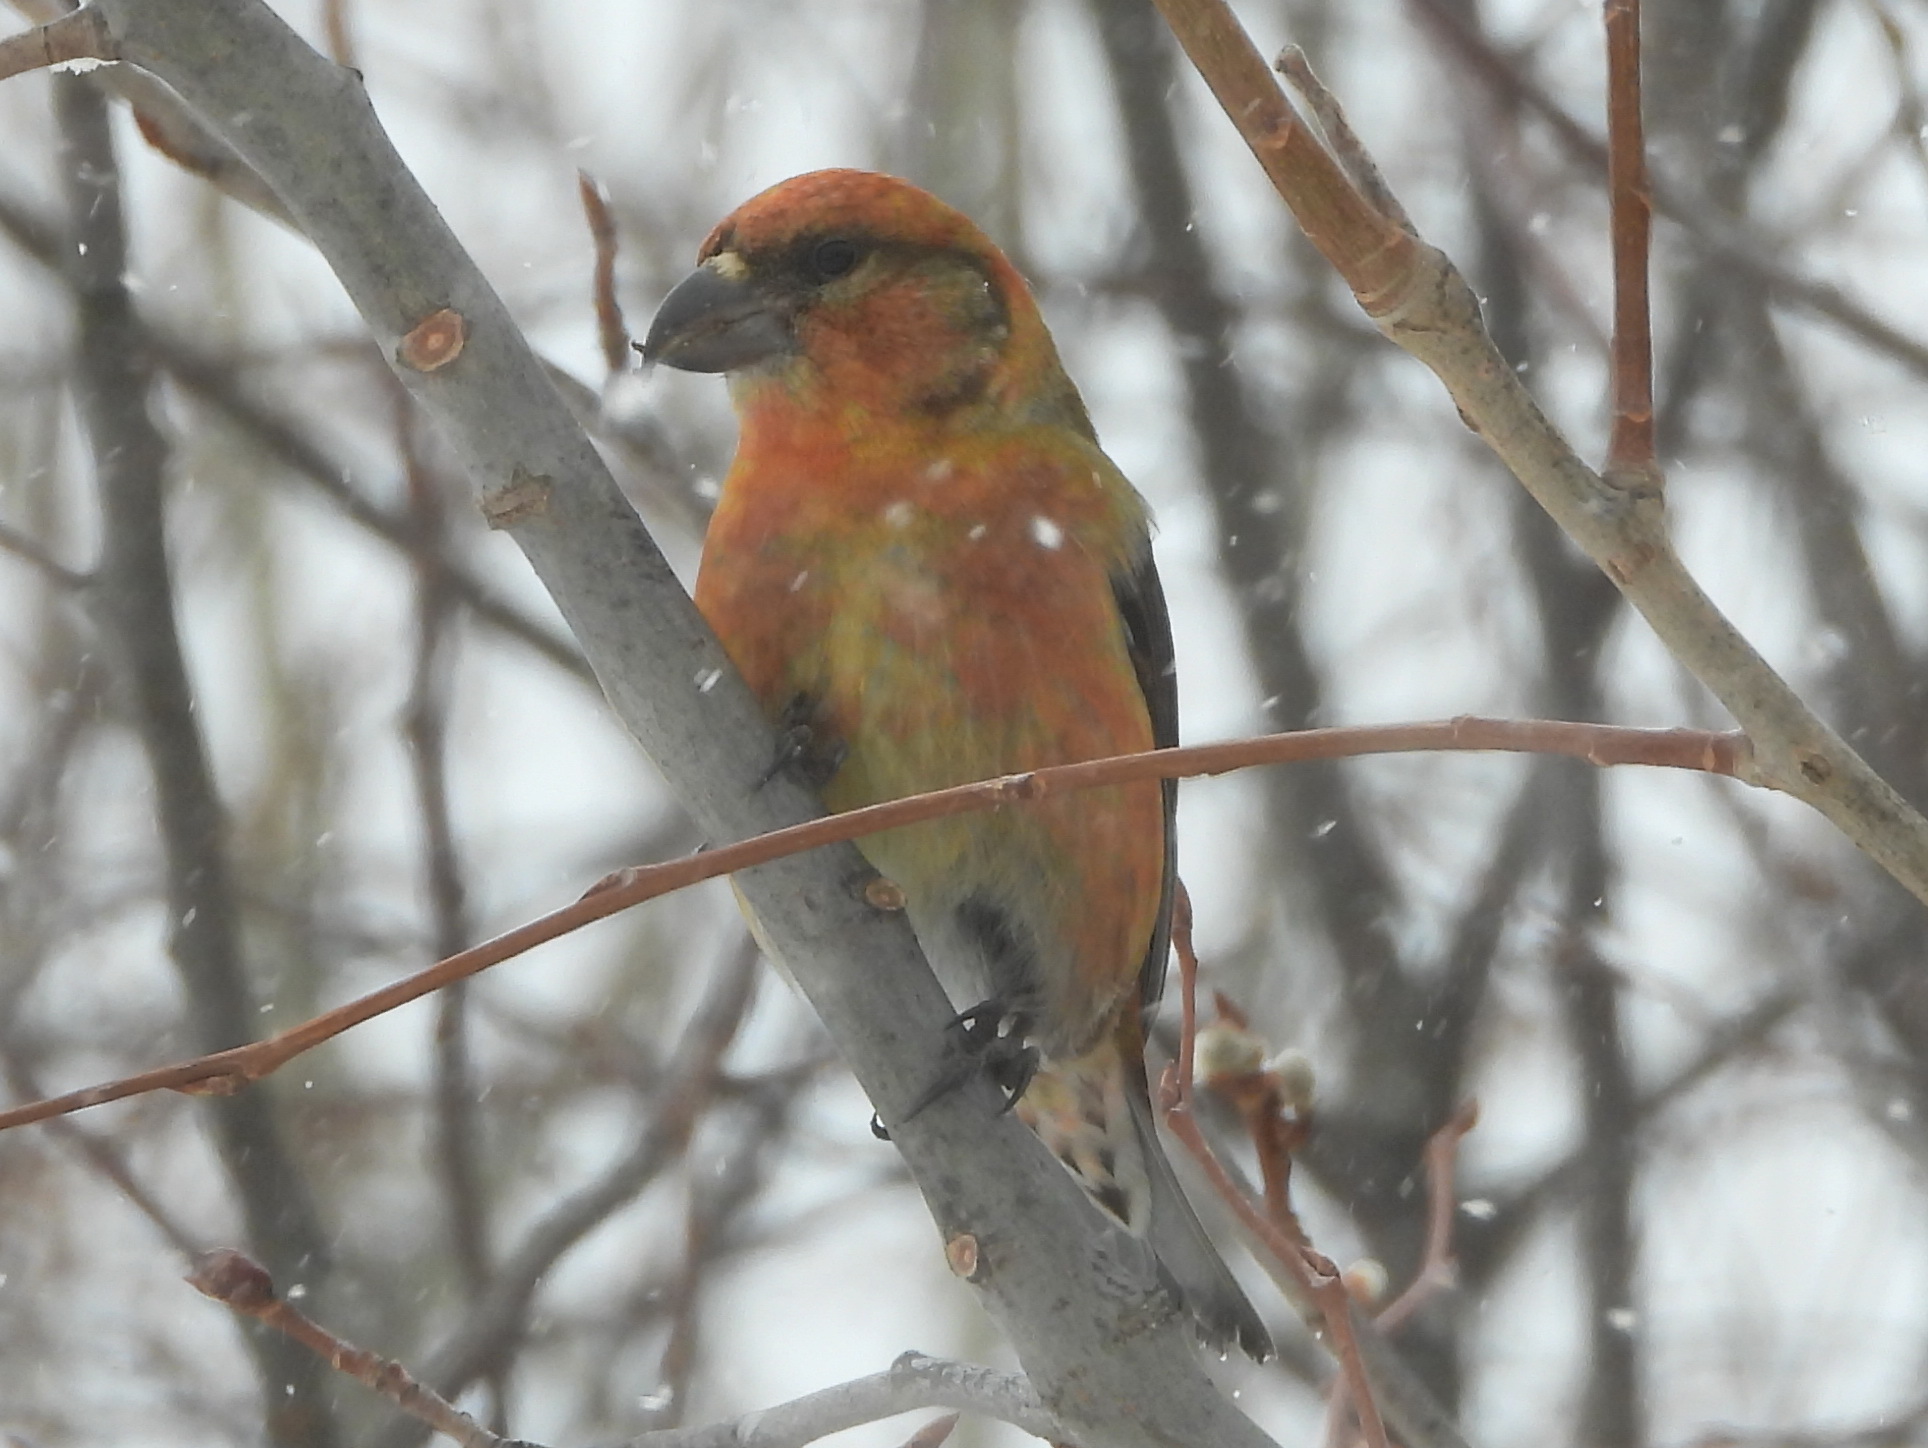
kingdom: Animalia
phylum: Chordata
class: Aves
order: Passeriformes
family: Fringillidae
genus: Loxia
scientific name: Loxia curvirostra
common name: Red crossbill
